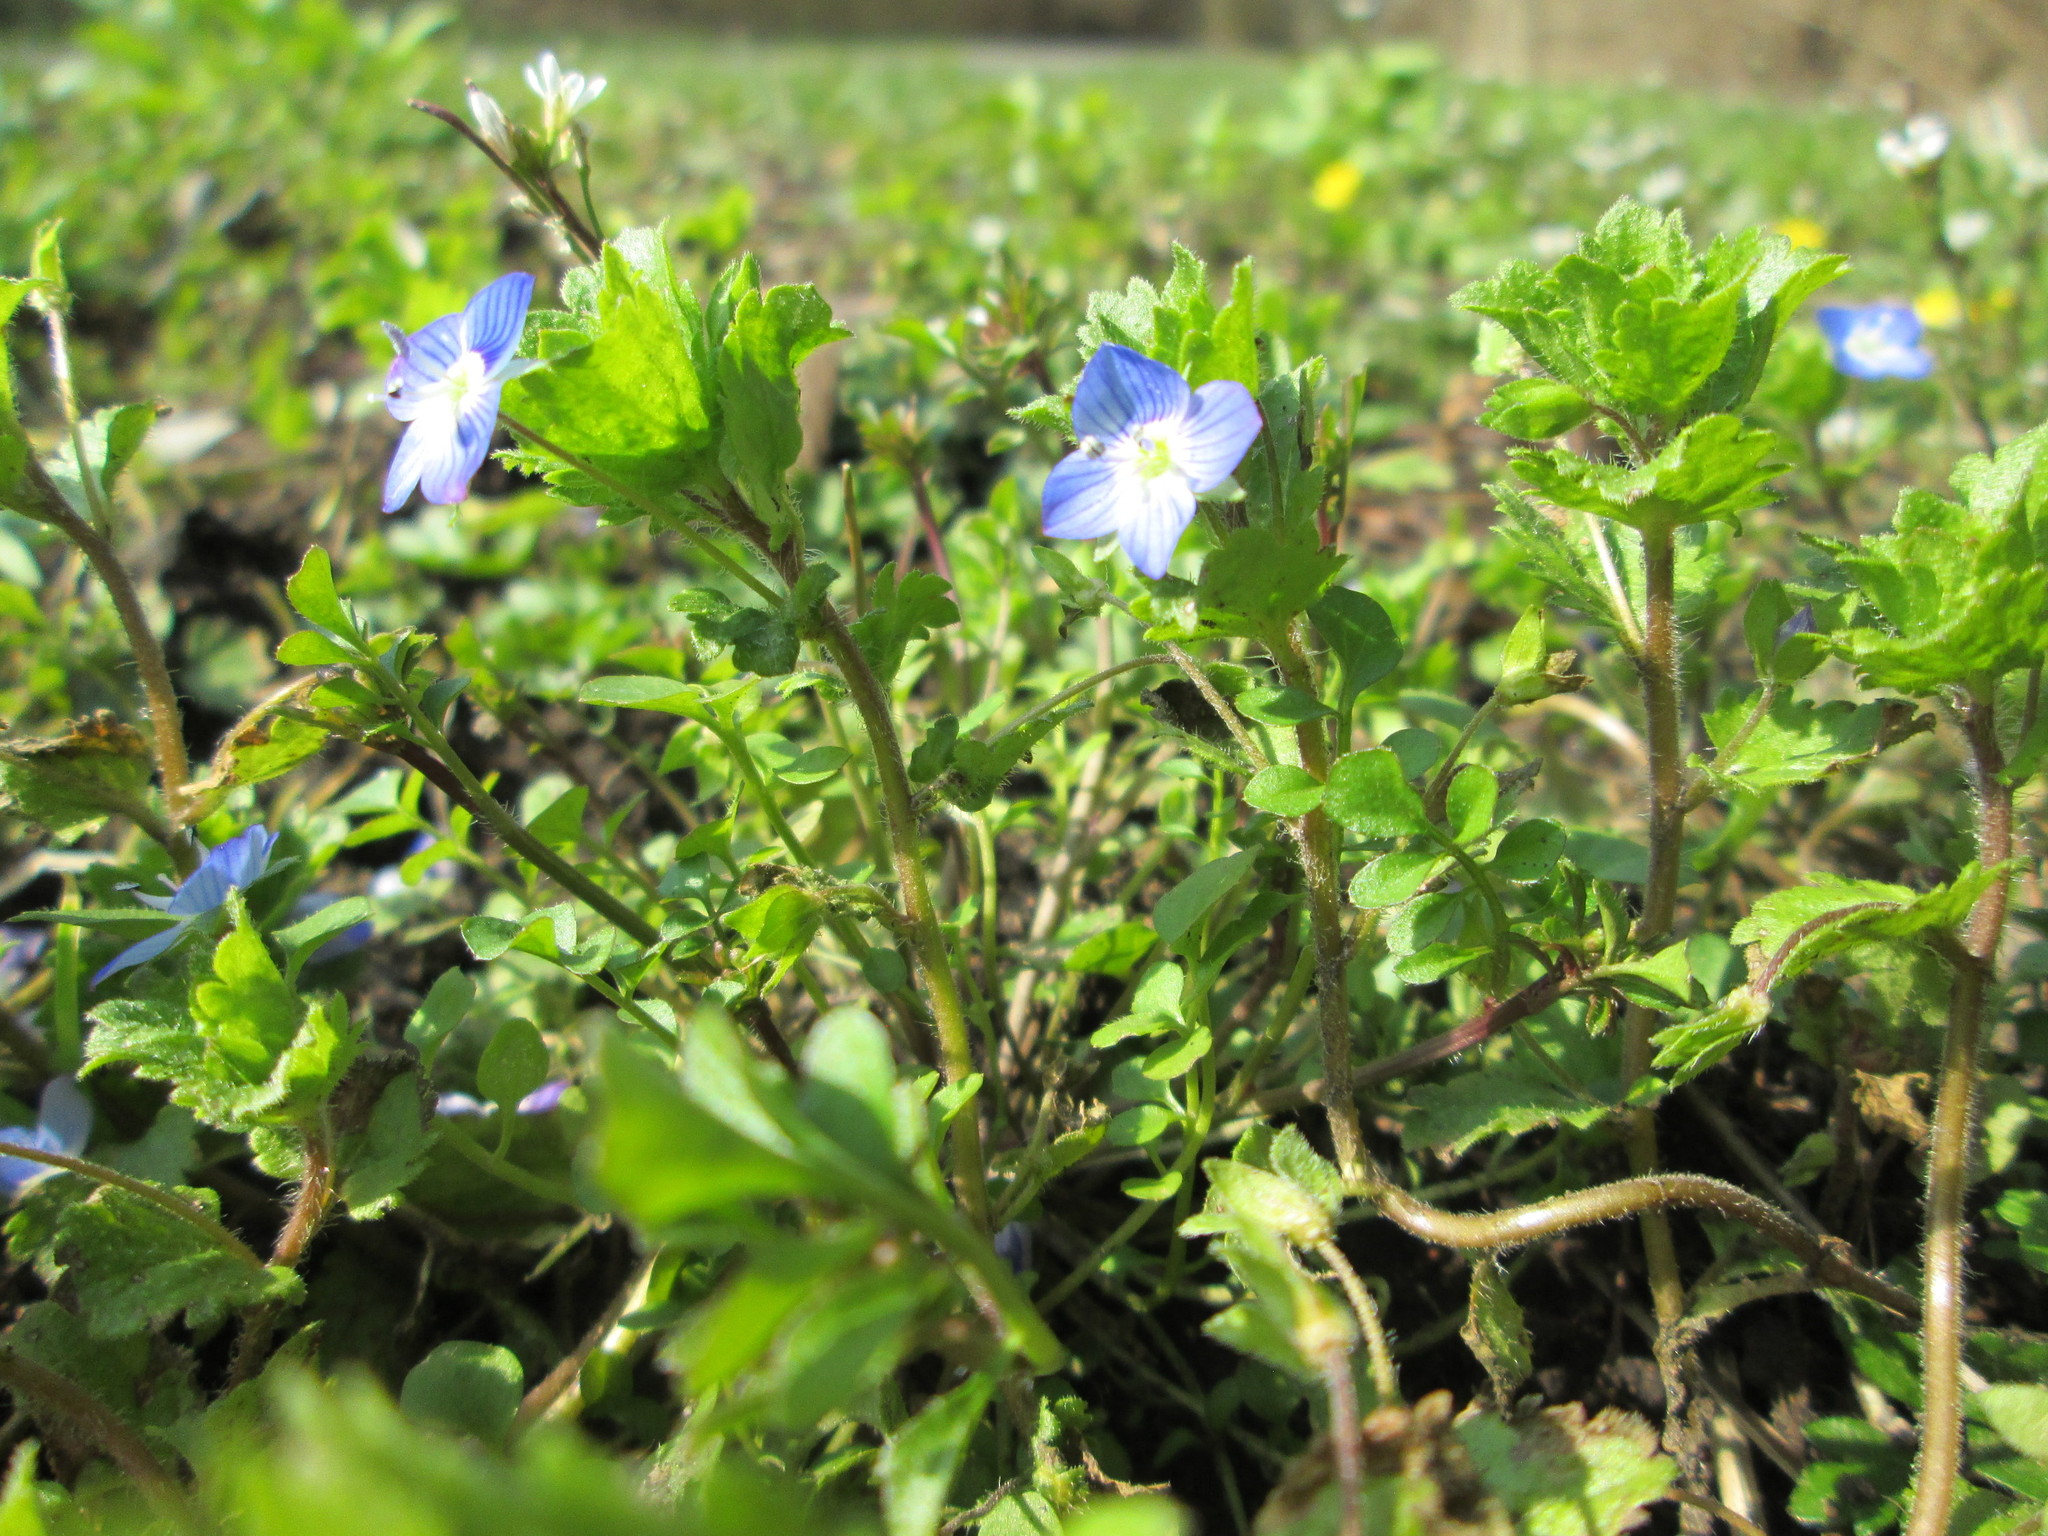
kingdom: Plantae
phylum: Tracheophyta
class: Magnoliopsida
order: Lamiales
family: Plantaginaceae
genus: Veronica
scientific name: Veronica persica
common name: Common field-speedwell
